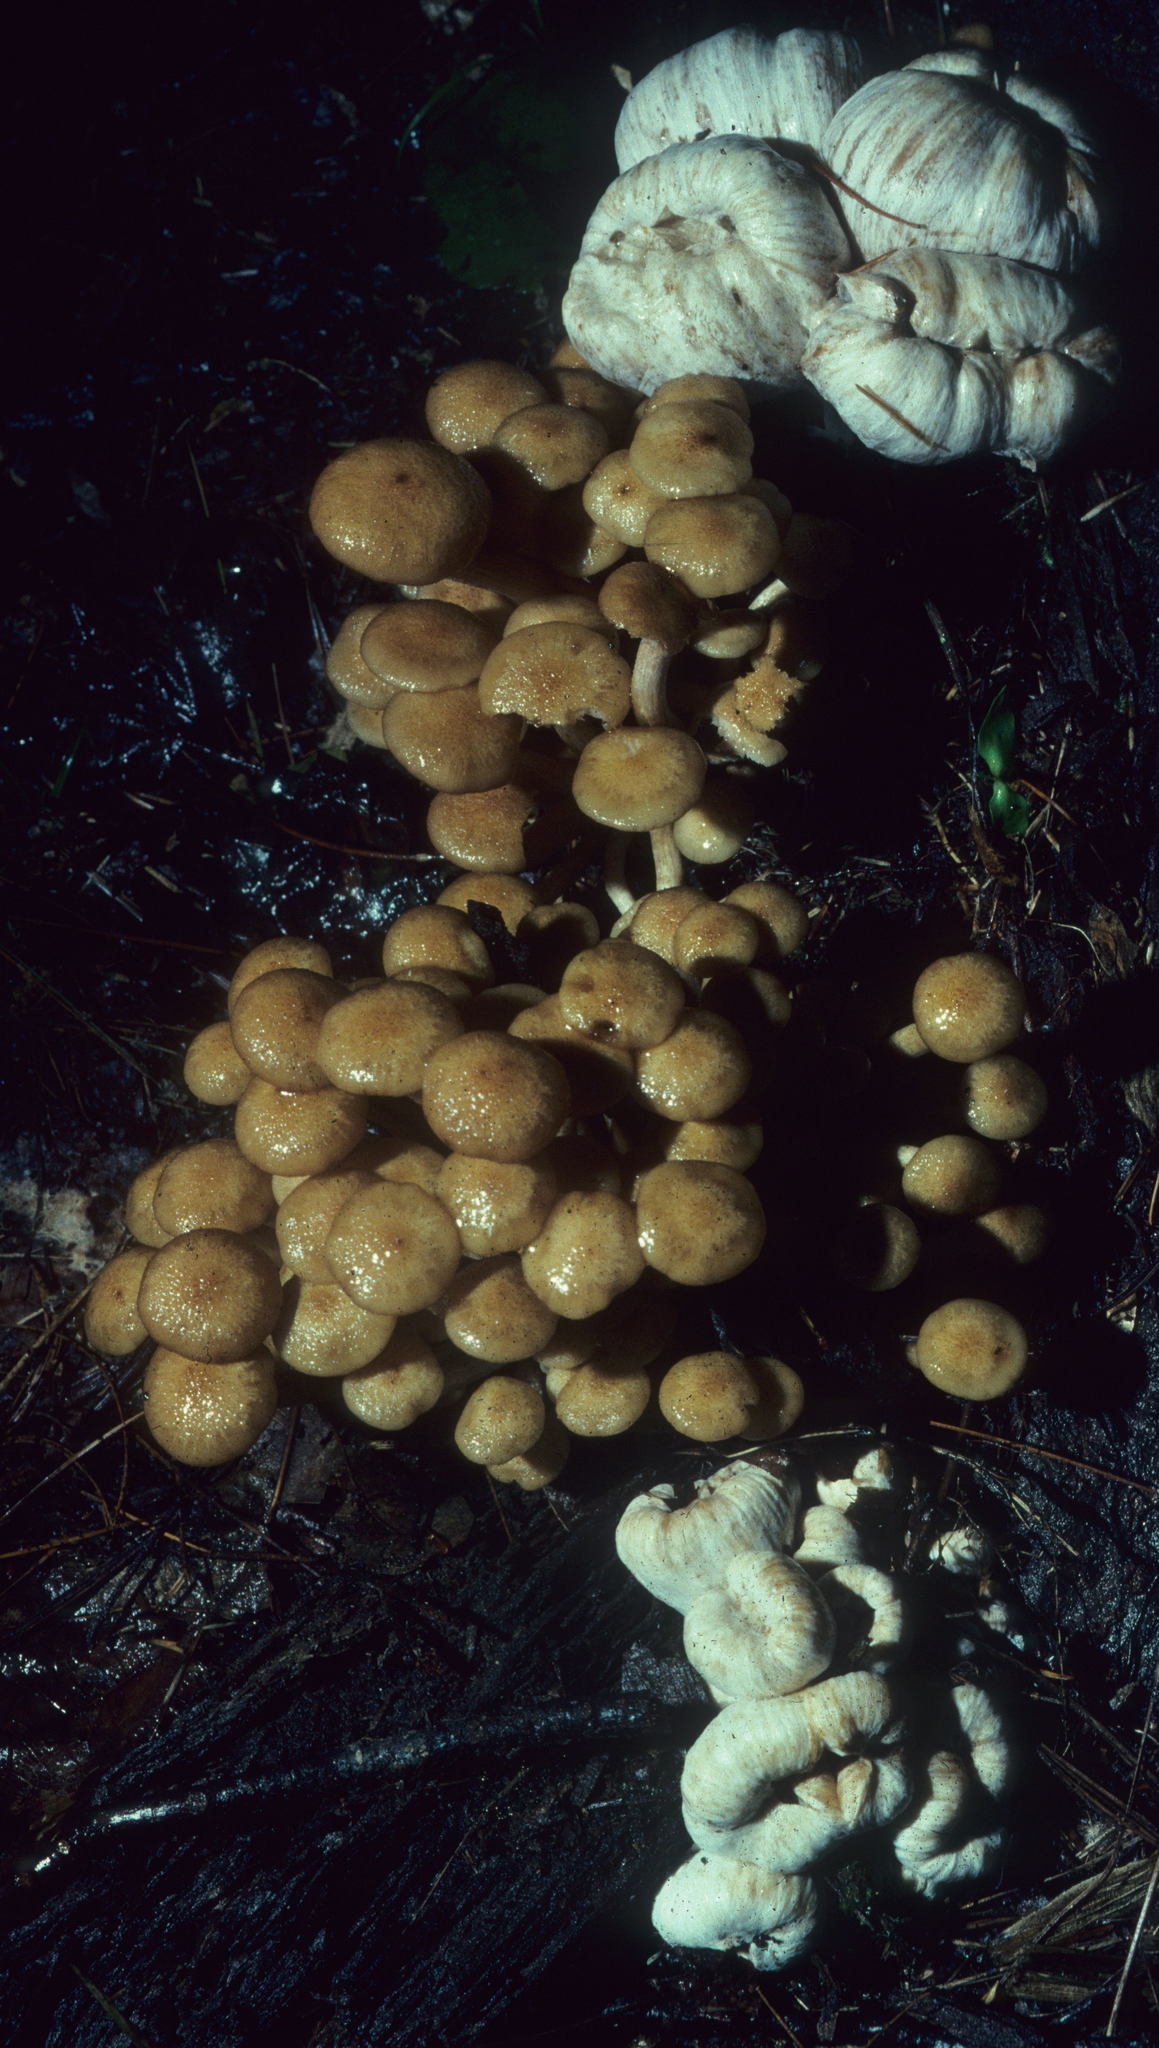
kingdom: Fungi
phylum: Basidiomycota
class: Agaricomycetes
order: Agaricales
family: Entolomataceae
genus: Entoloma
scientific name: Entoloma abortivum
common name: Aborted entoloma
